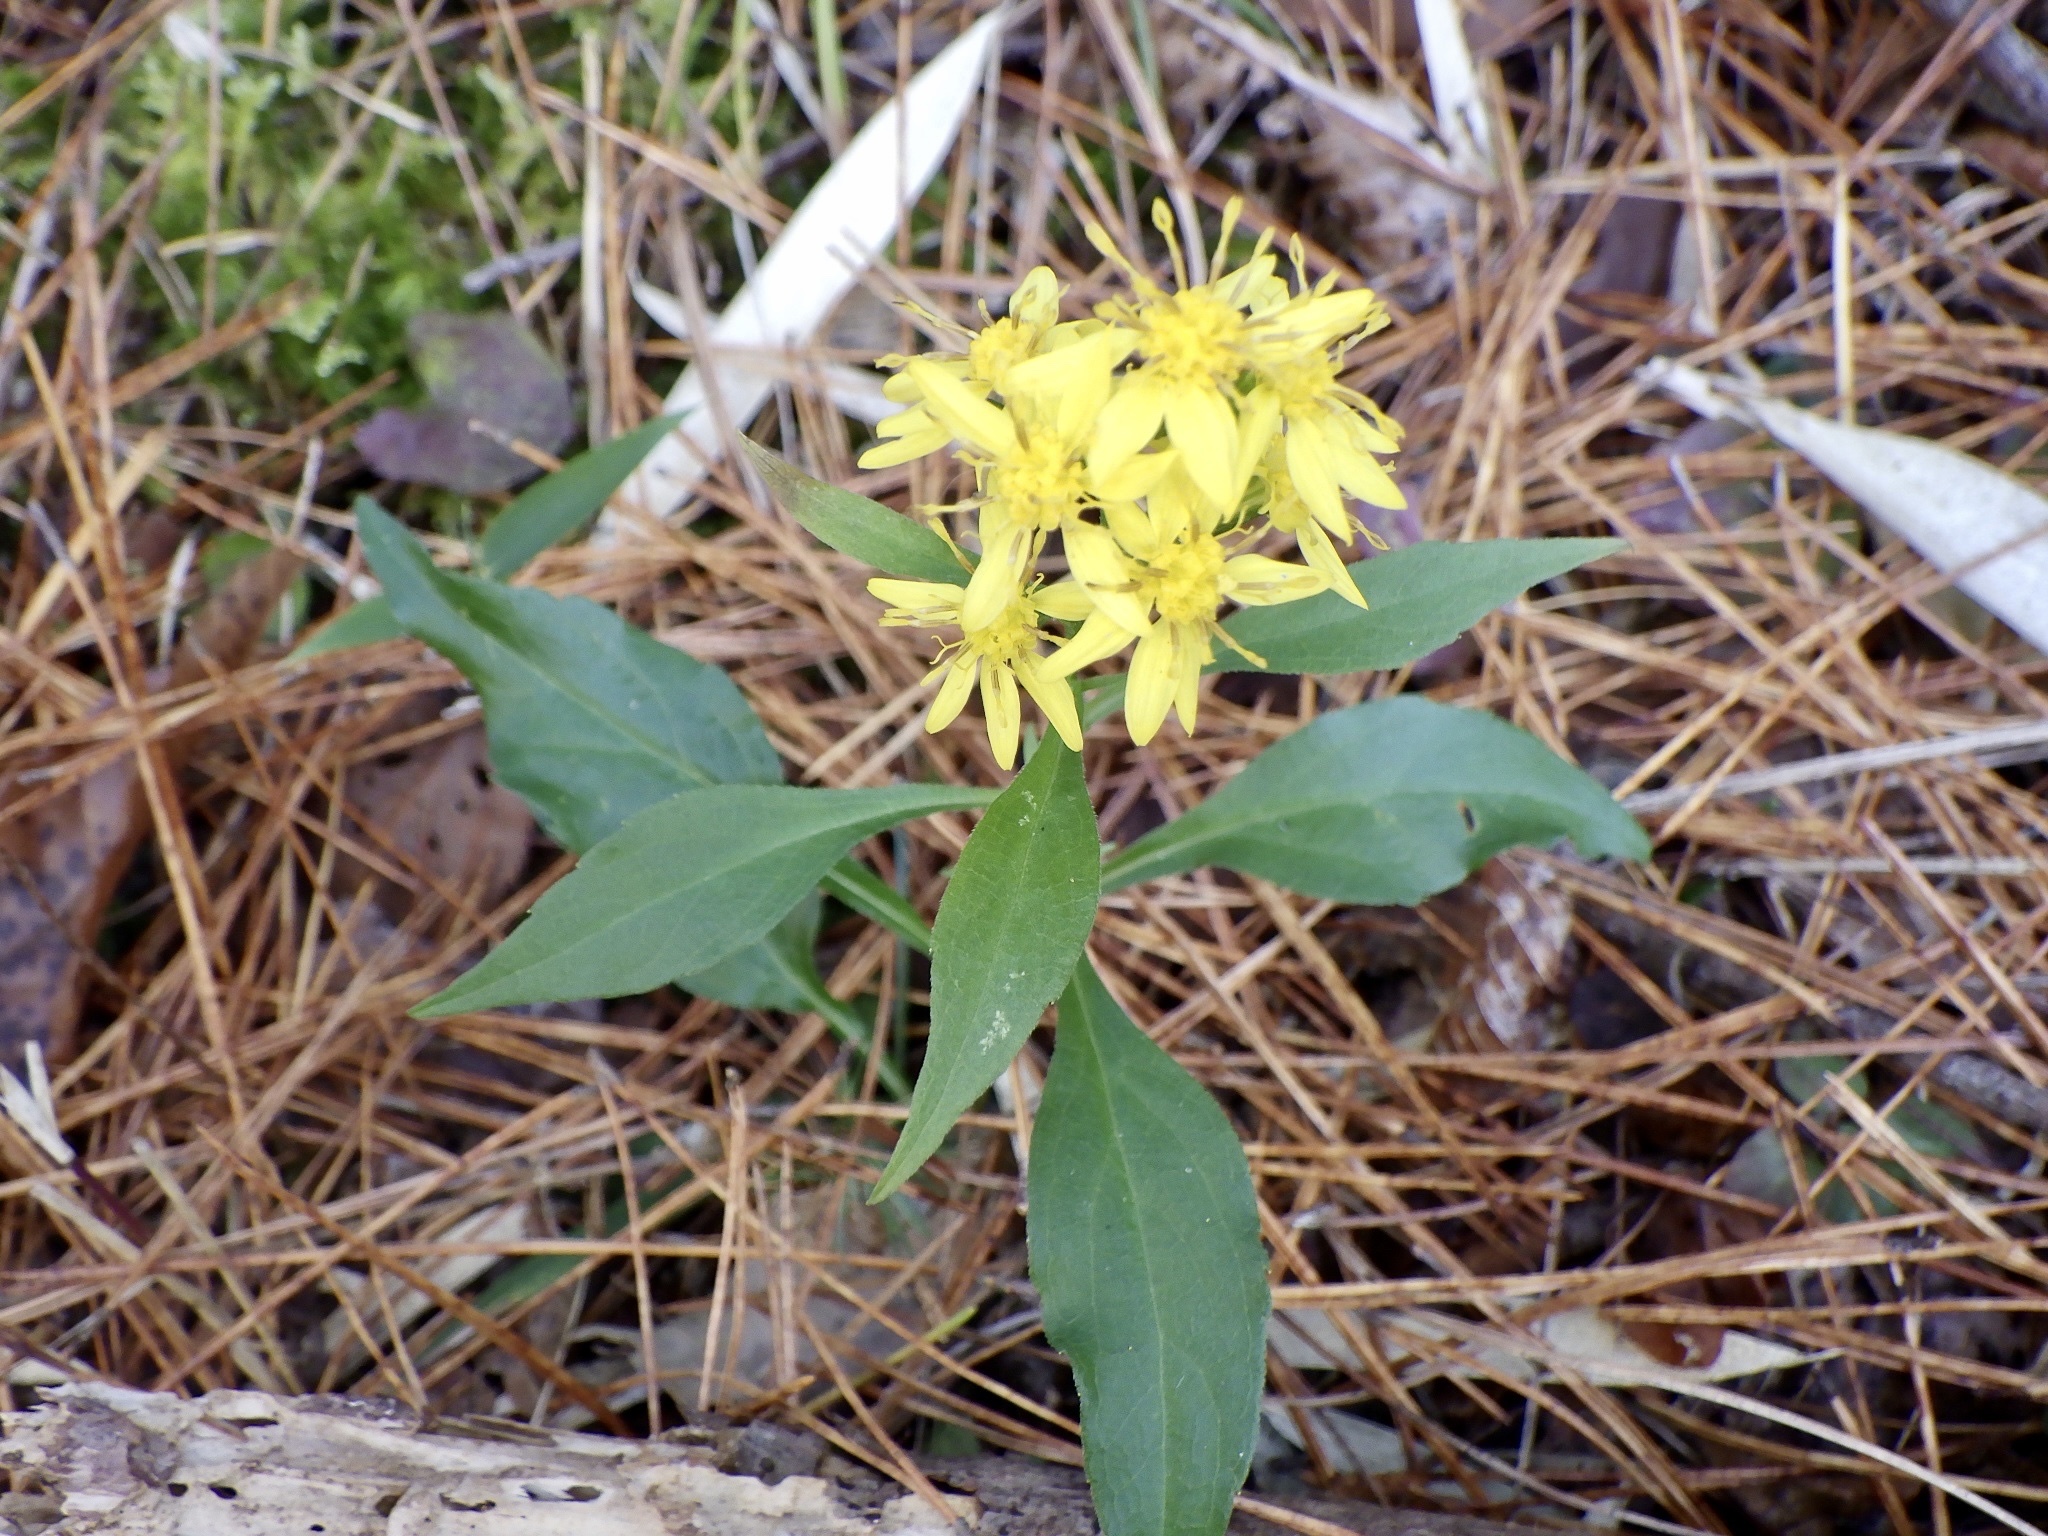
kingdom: Plantae
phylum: Tracheophyta
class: Magnoliopsida
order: Asterales
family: Asteraceae
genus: Solidago
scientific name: Solidago virgaurea
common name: Goldenrod
